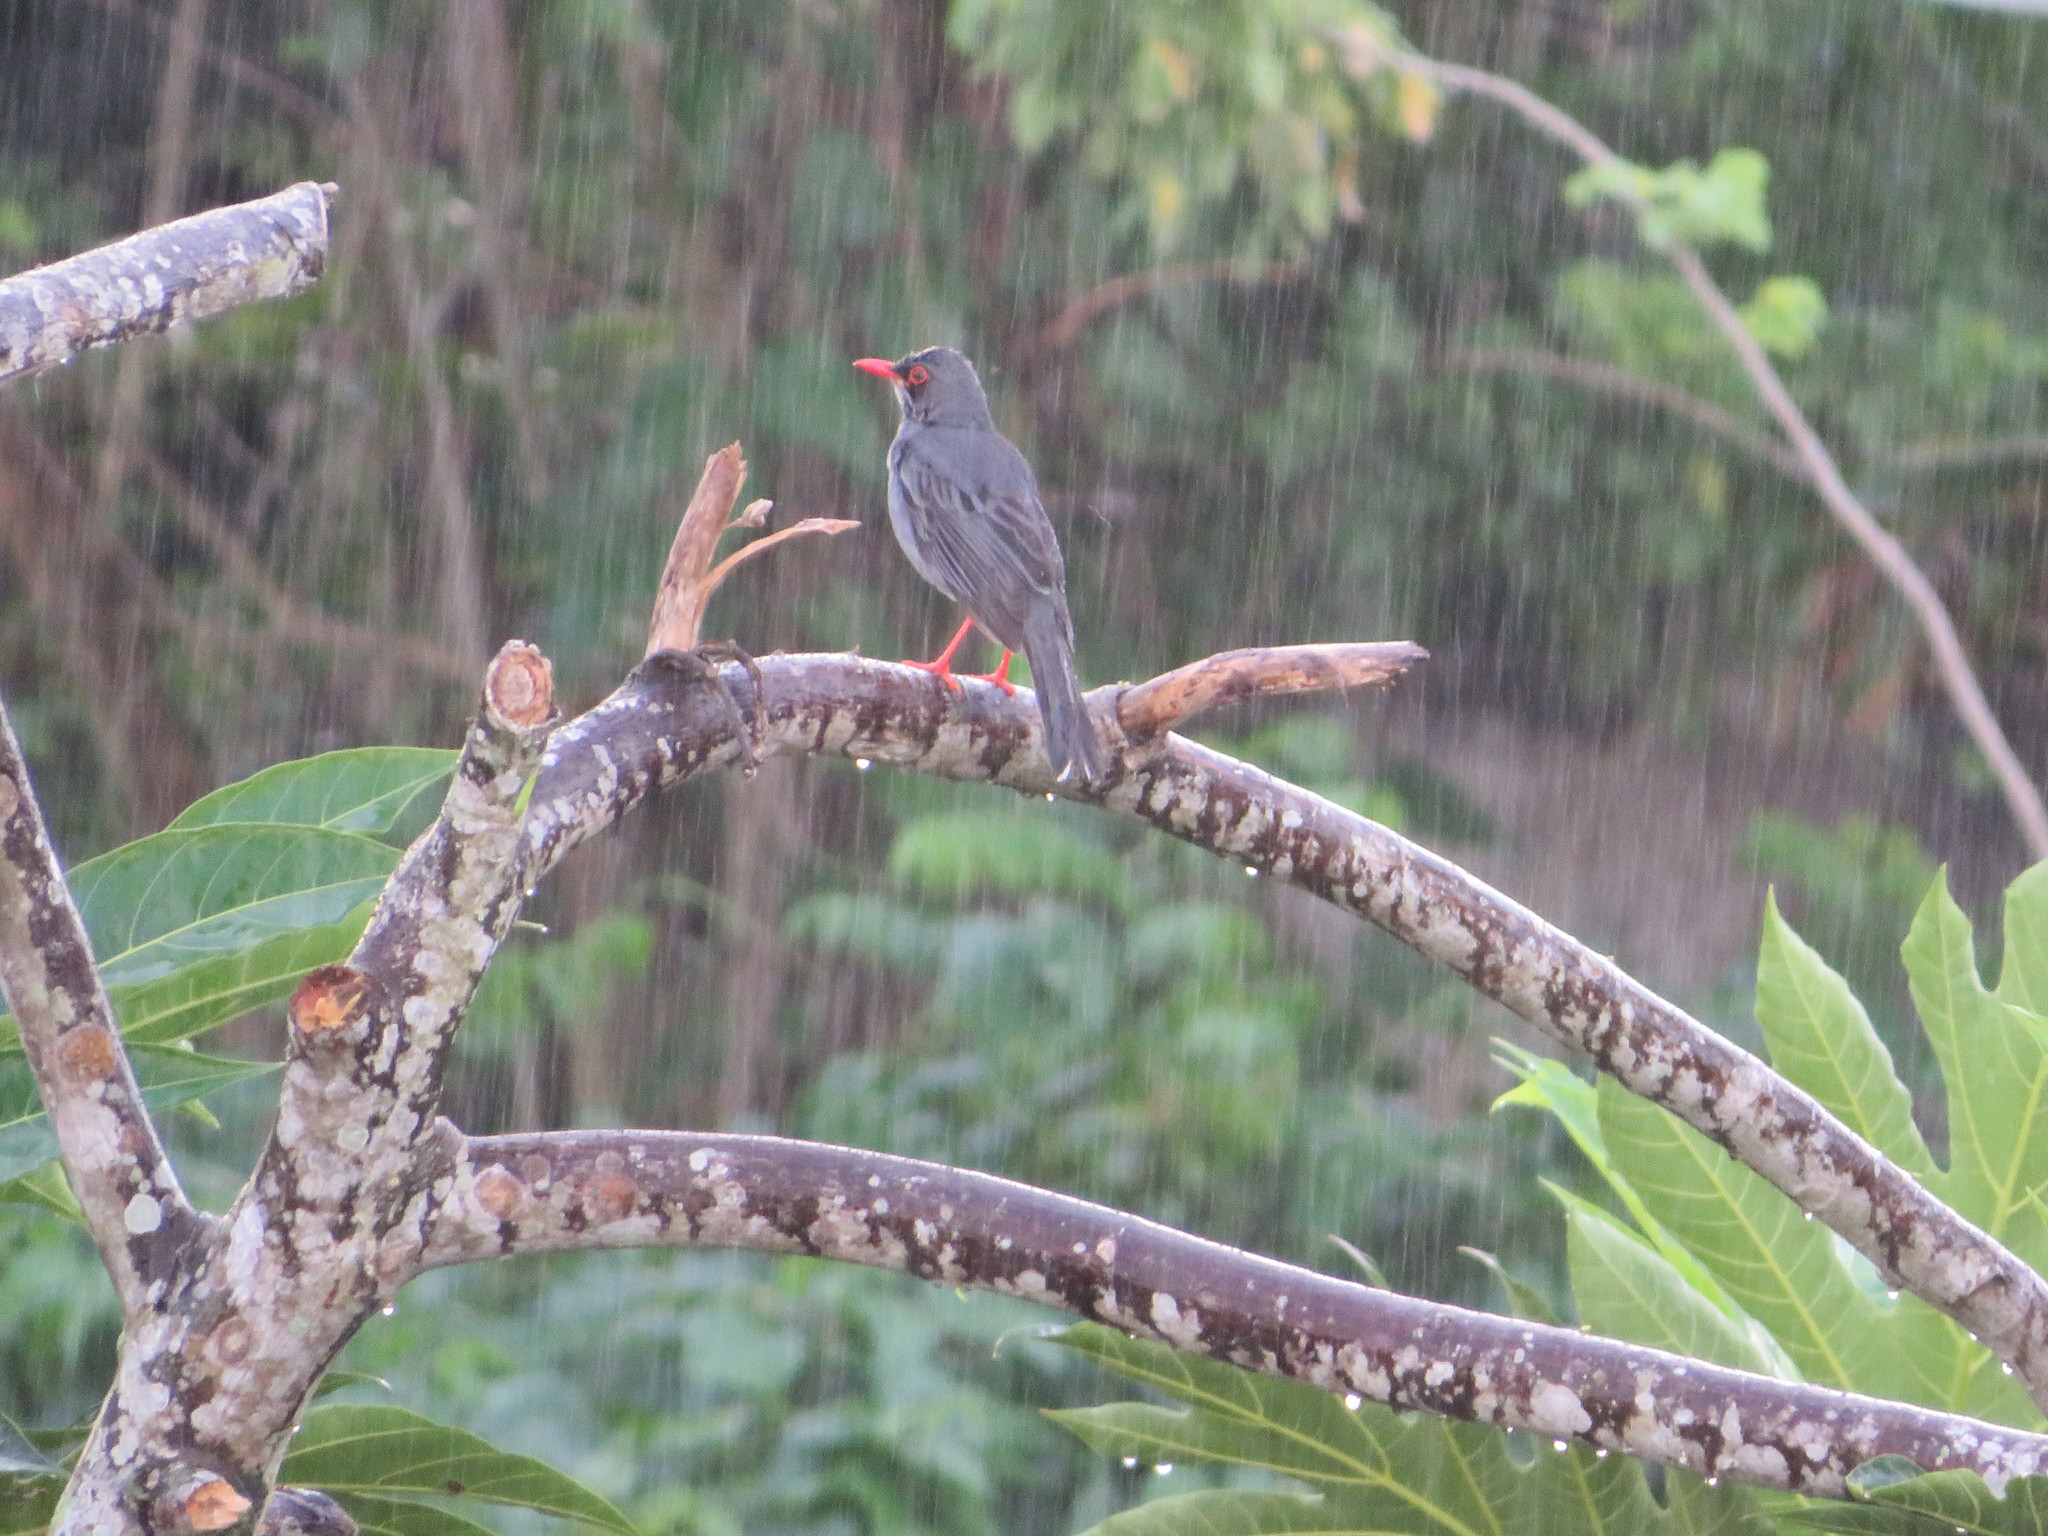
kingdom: Animalia
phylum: Chordata
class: Aves
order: Passeriformes
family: Turdidae
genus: Turdus
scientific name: Turdus plumbeus
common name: Red-legged thrush
